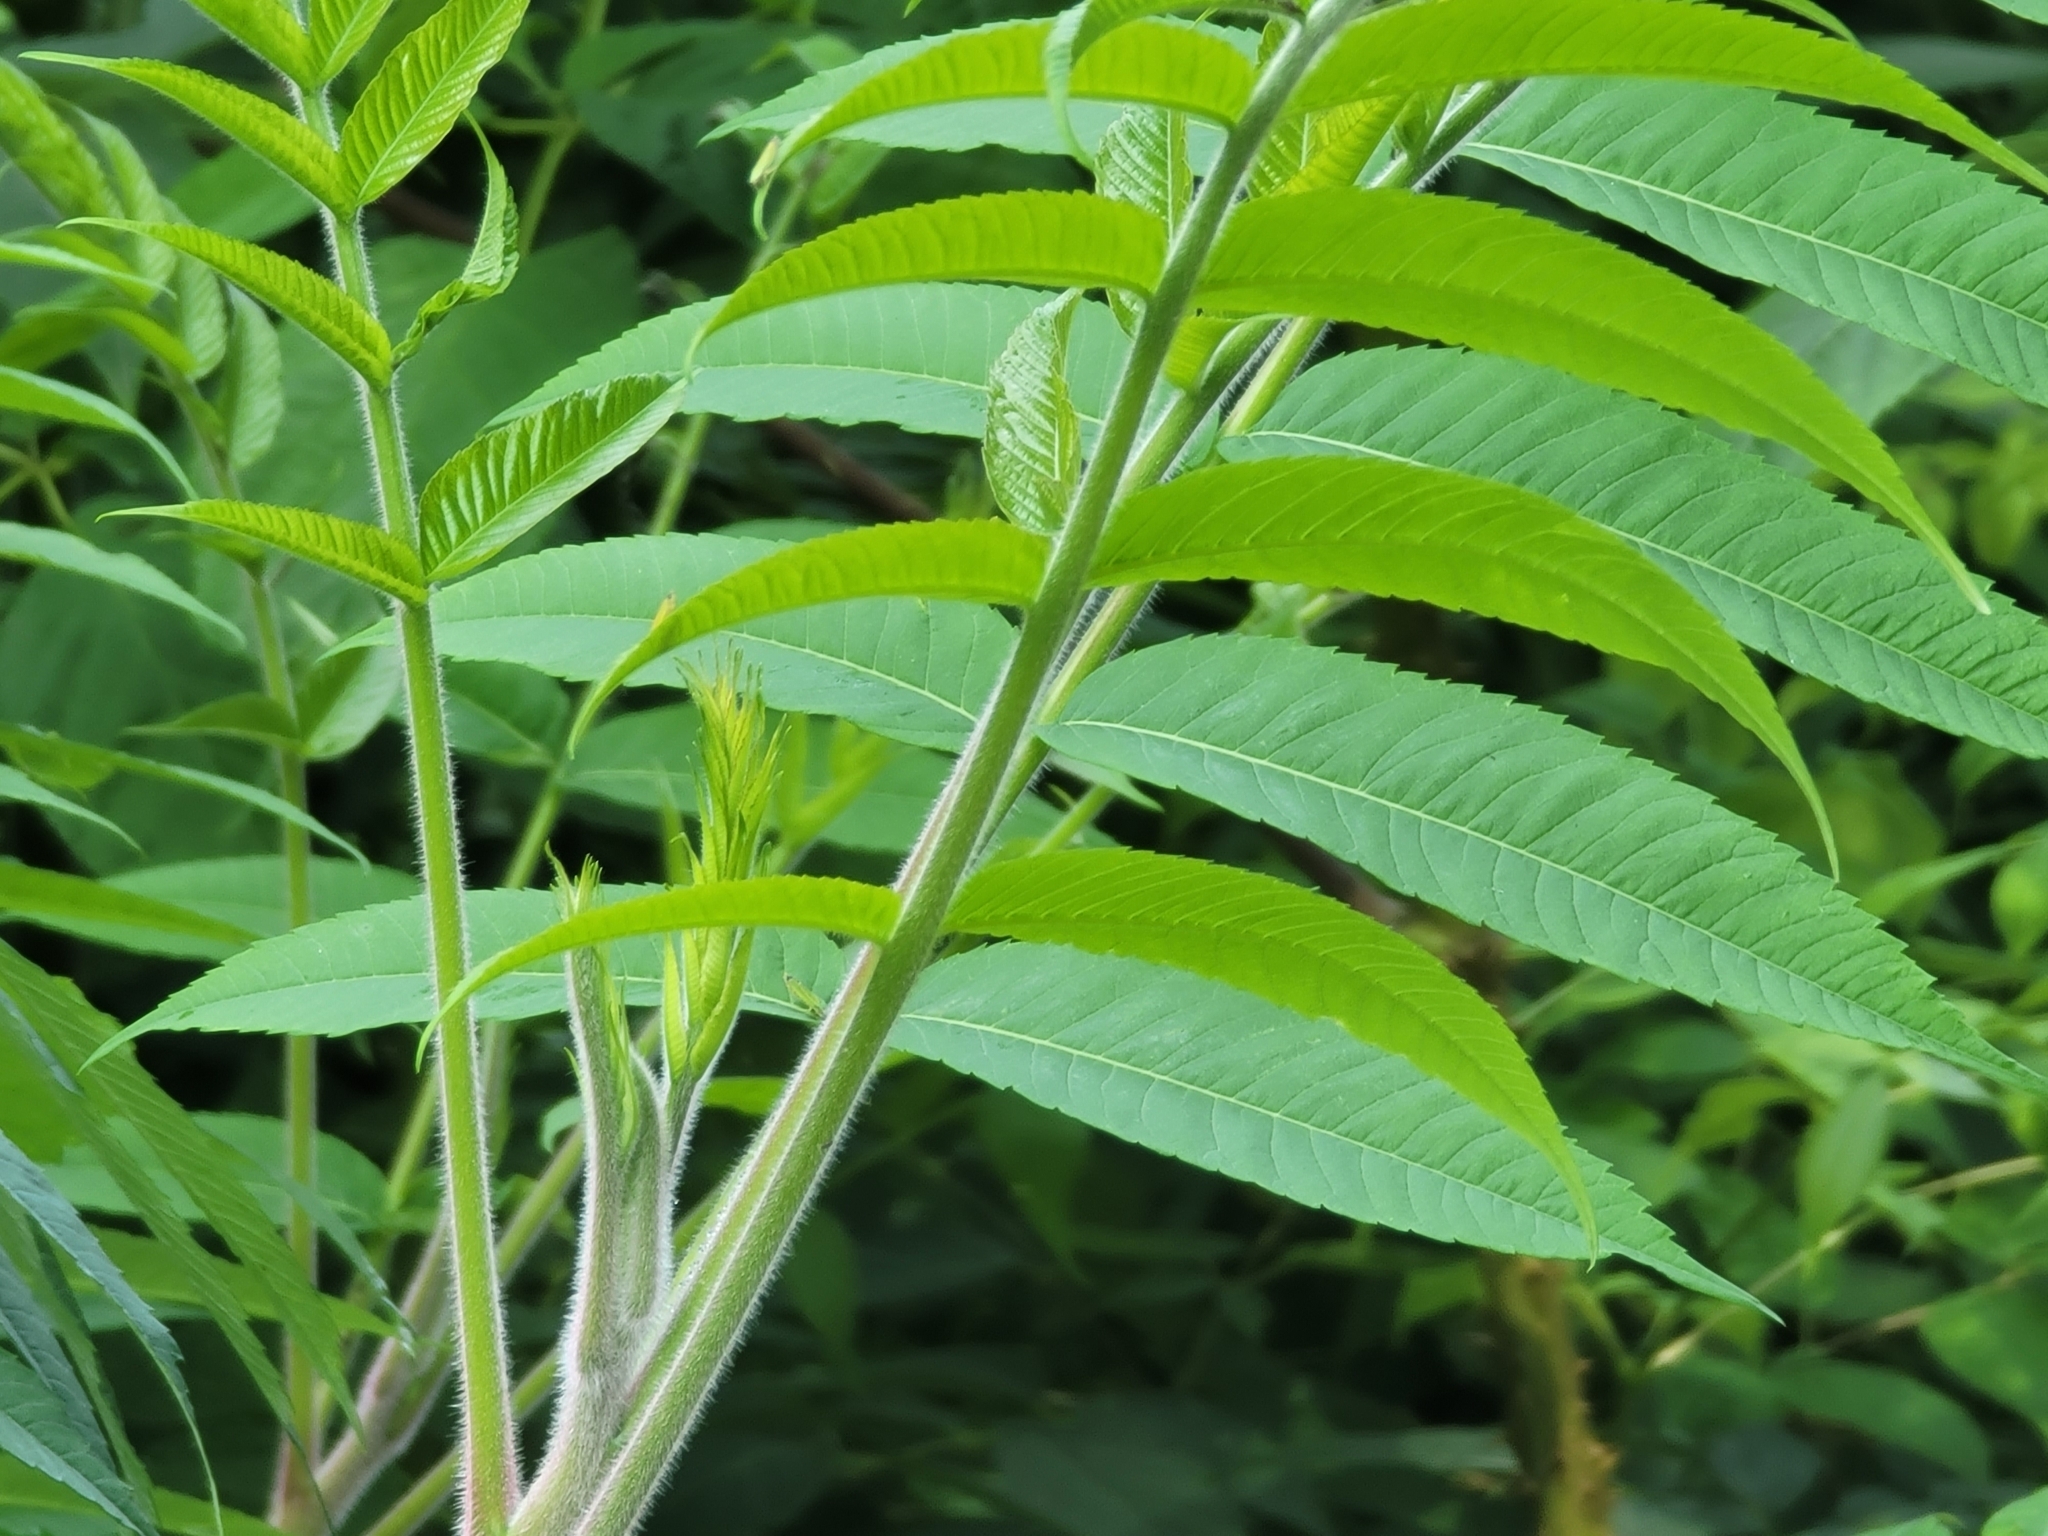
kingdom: Plantae
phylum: Tracheophyta
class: Magnoliopsida
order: Sapindales
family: Anacardiaceae
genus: Rhus
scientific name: Rhus typhina
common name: Staghorn sumac
